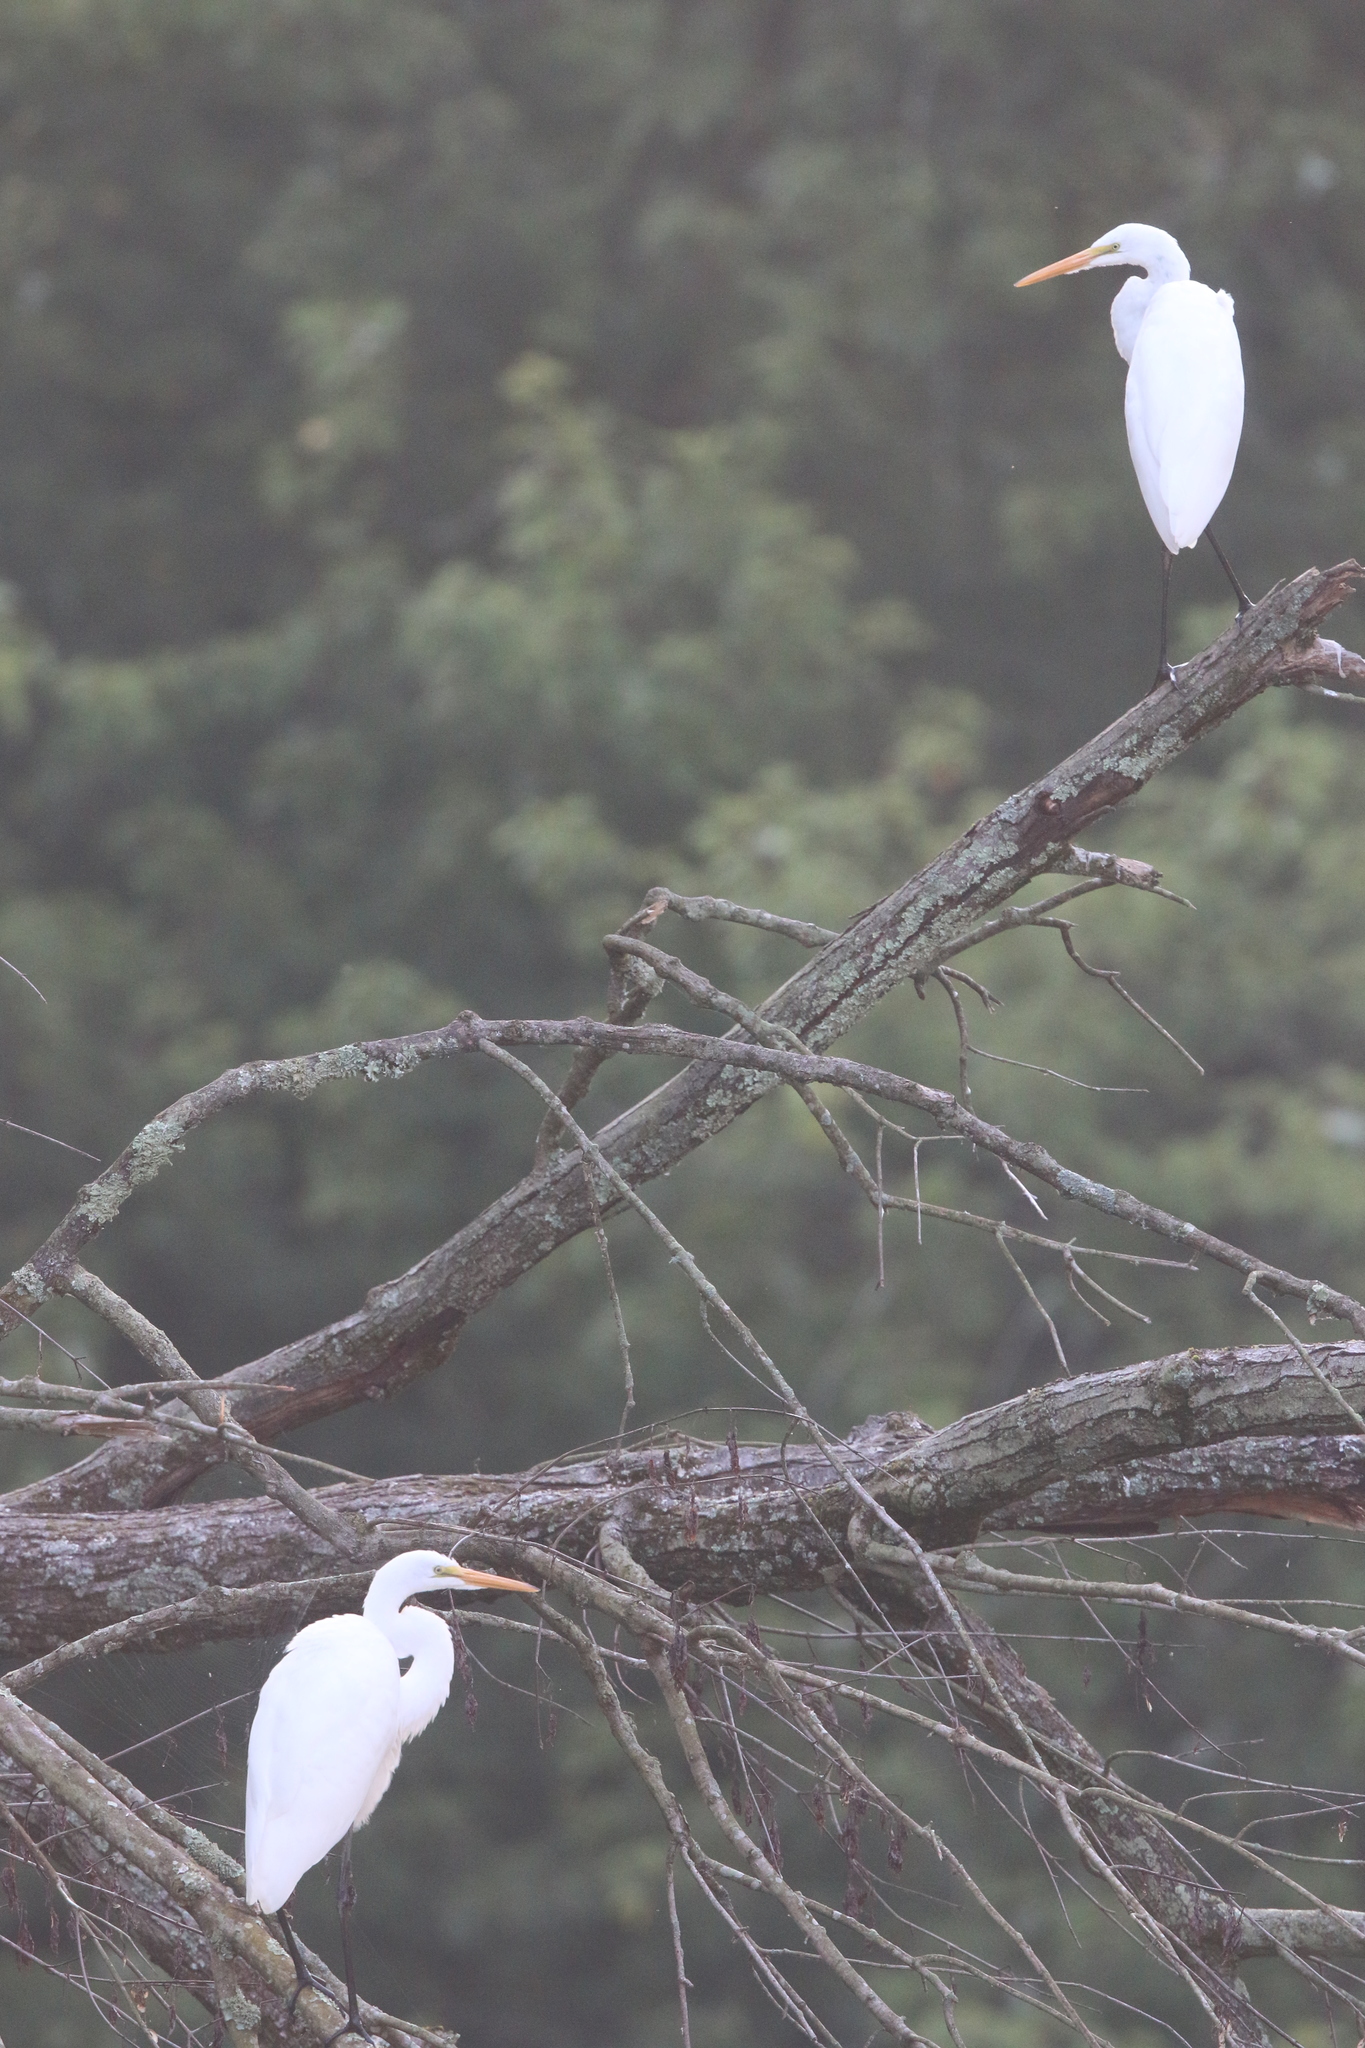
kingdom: Animalia
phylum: Chordata
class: Aves
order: Pelecaniformes
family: Ardeidae
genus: Ardea
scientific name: Ardea alba
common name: Great egret
